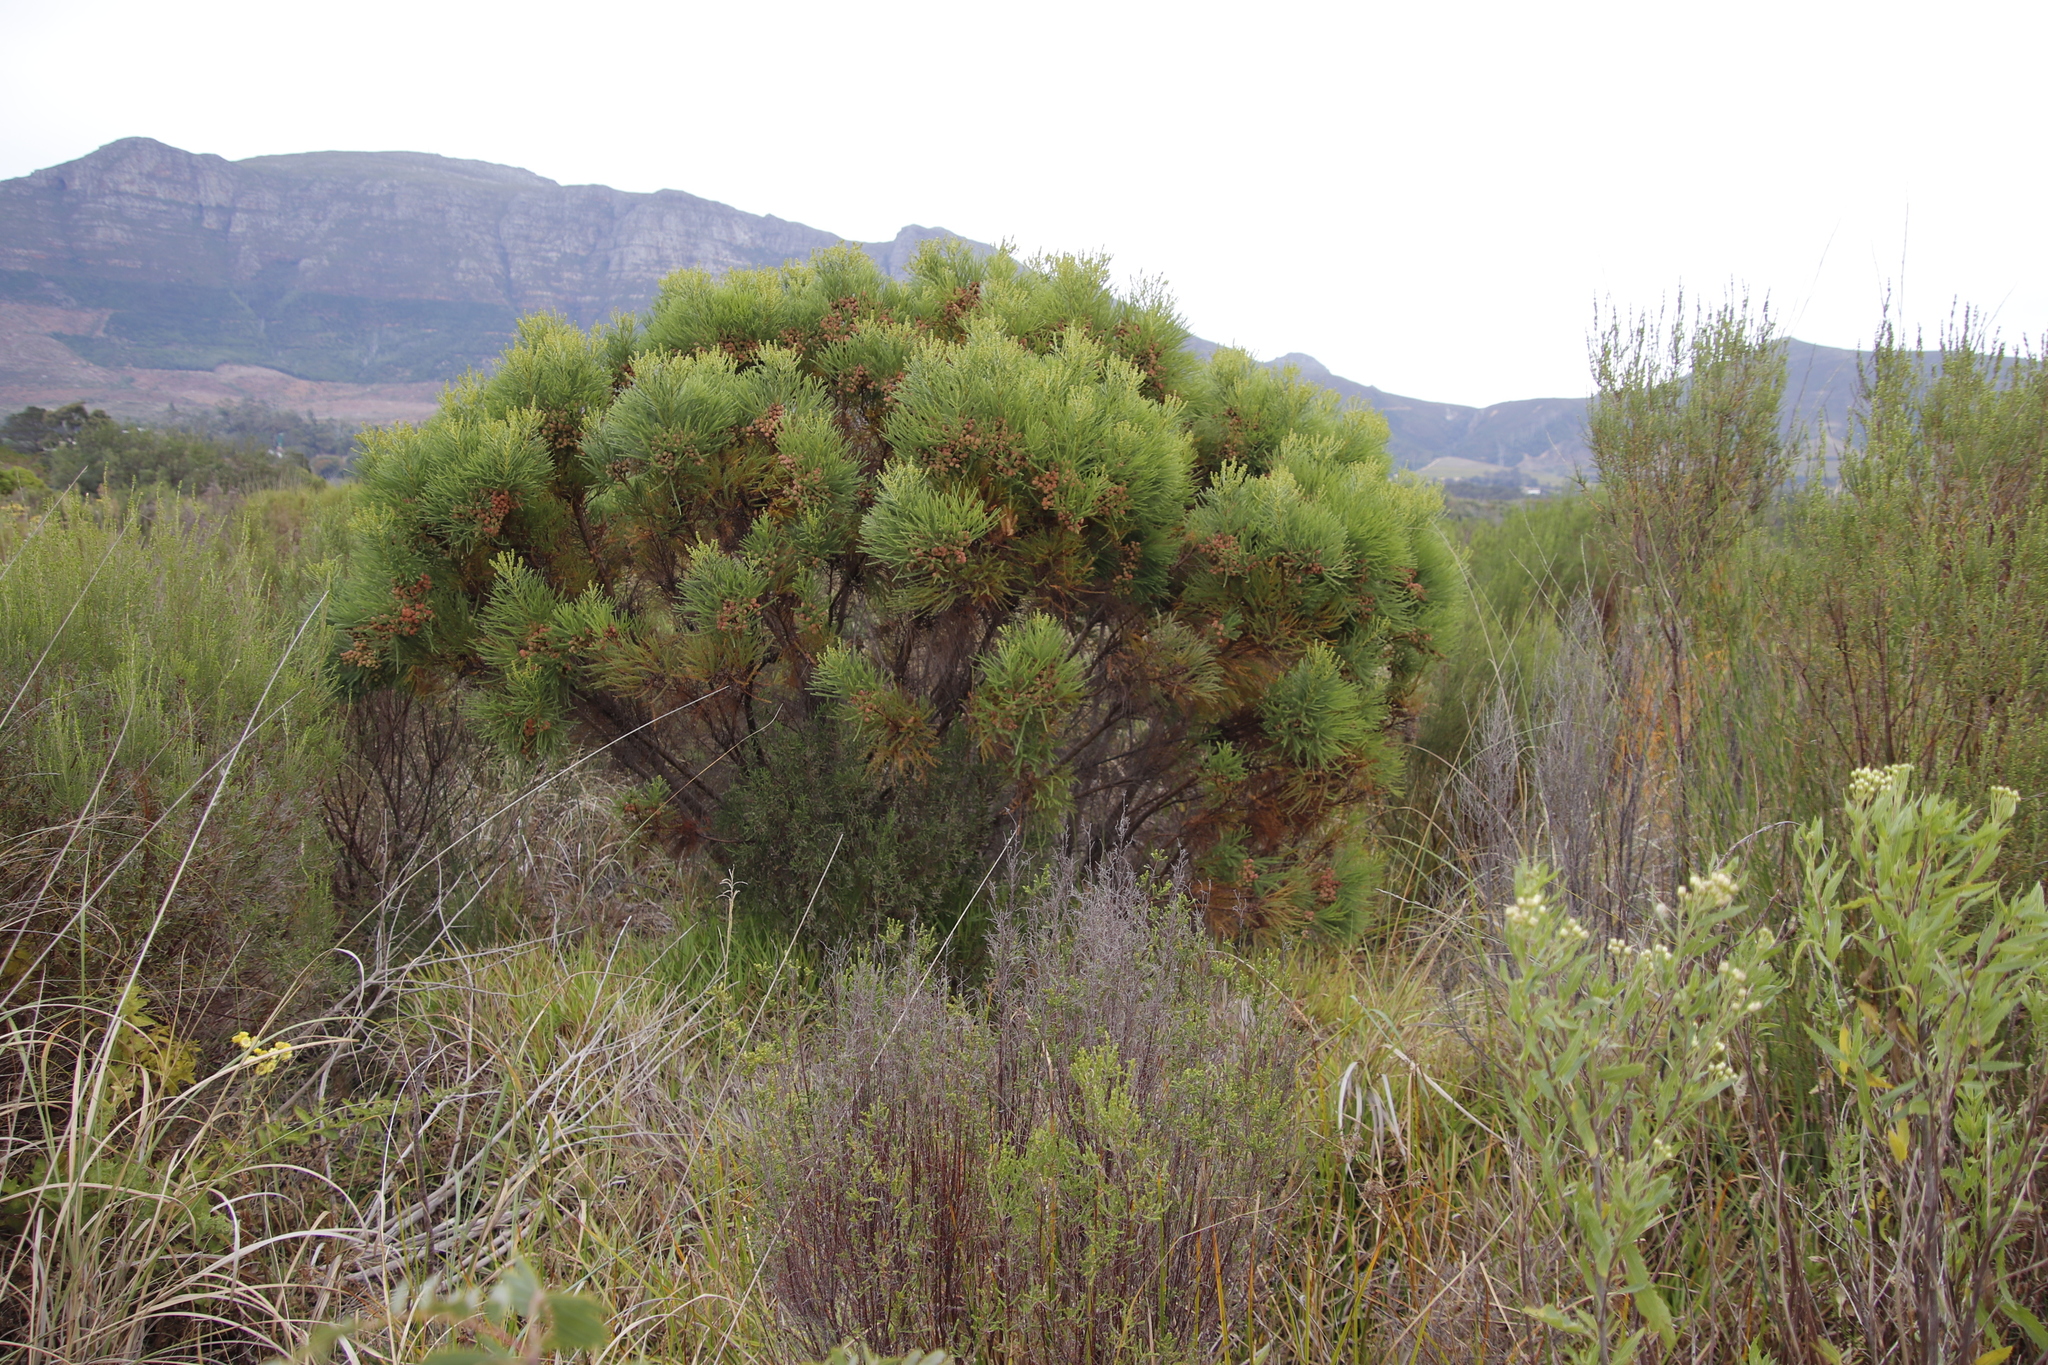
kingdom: Plantae
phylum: Tracheophyta
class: Magnoliopsida
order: Bruniales
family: Bruniaceae
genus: Berzelia
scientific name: Berzelia lanuginosa
